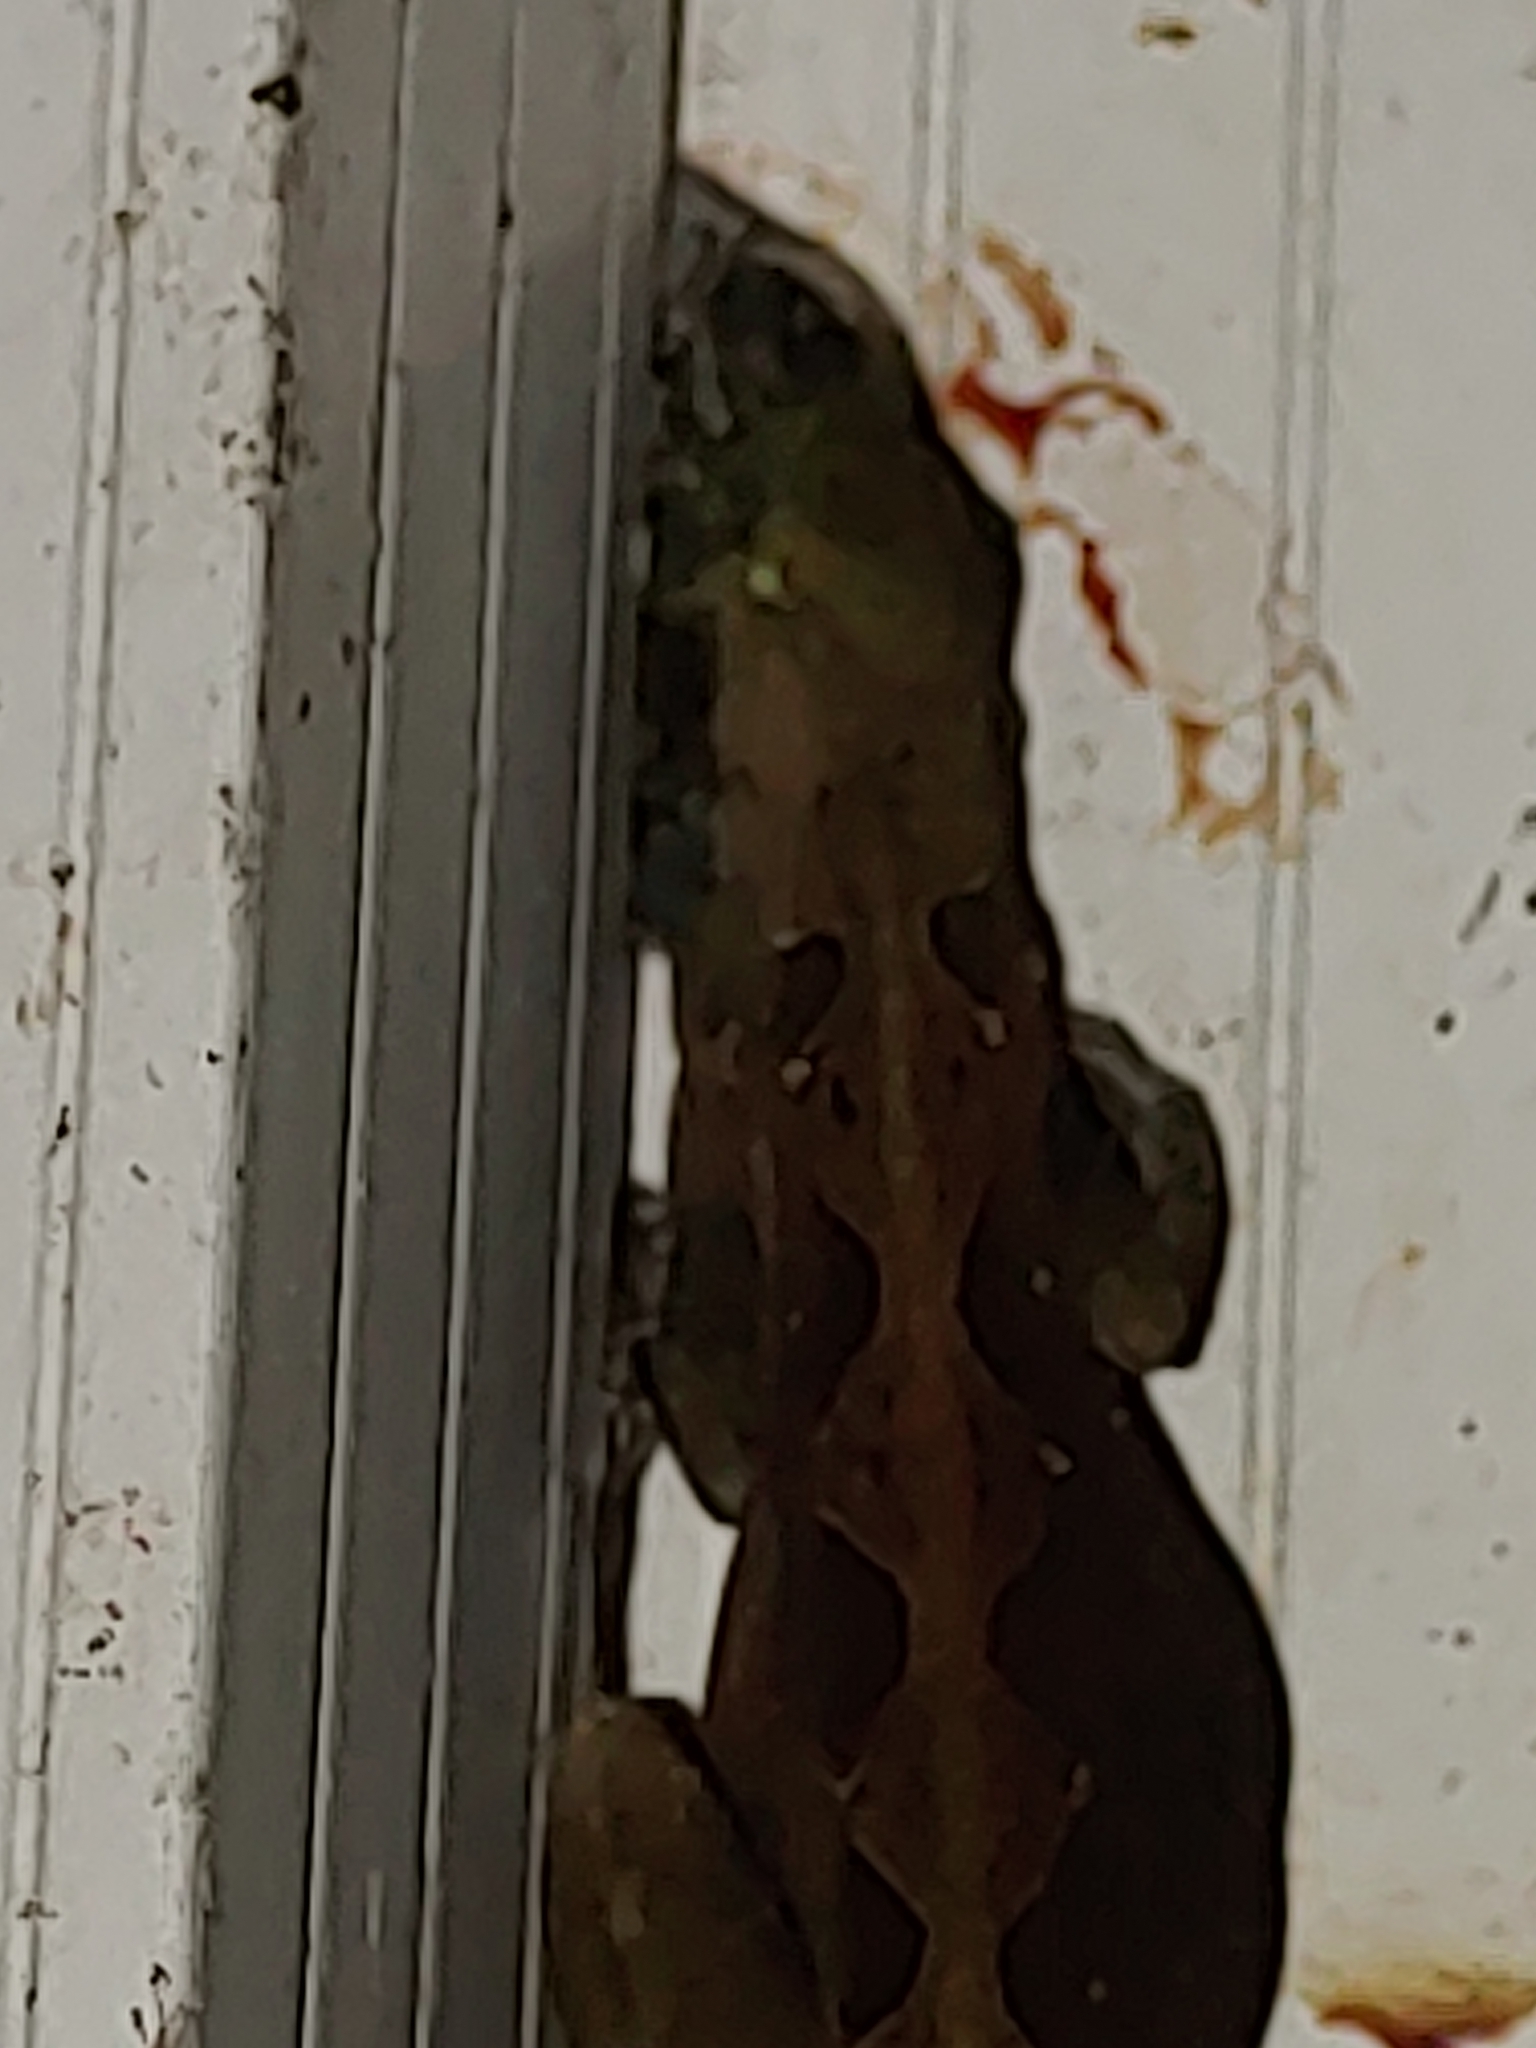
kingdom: Animalia
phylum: Chordata
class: Squamata
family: Dactyloidae
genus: Anolis
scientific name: Anolis sagrei
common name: Brown anole
